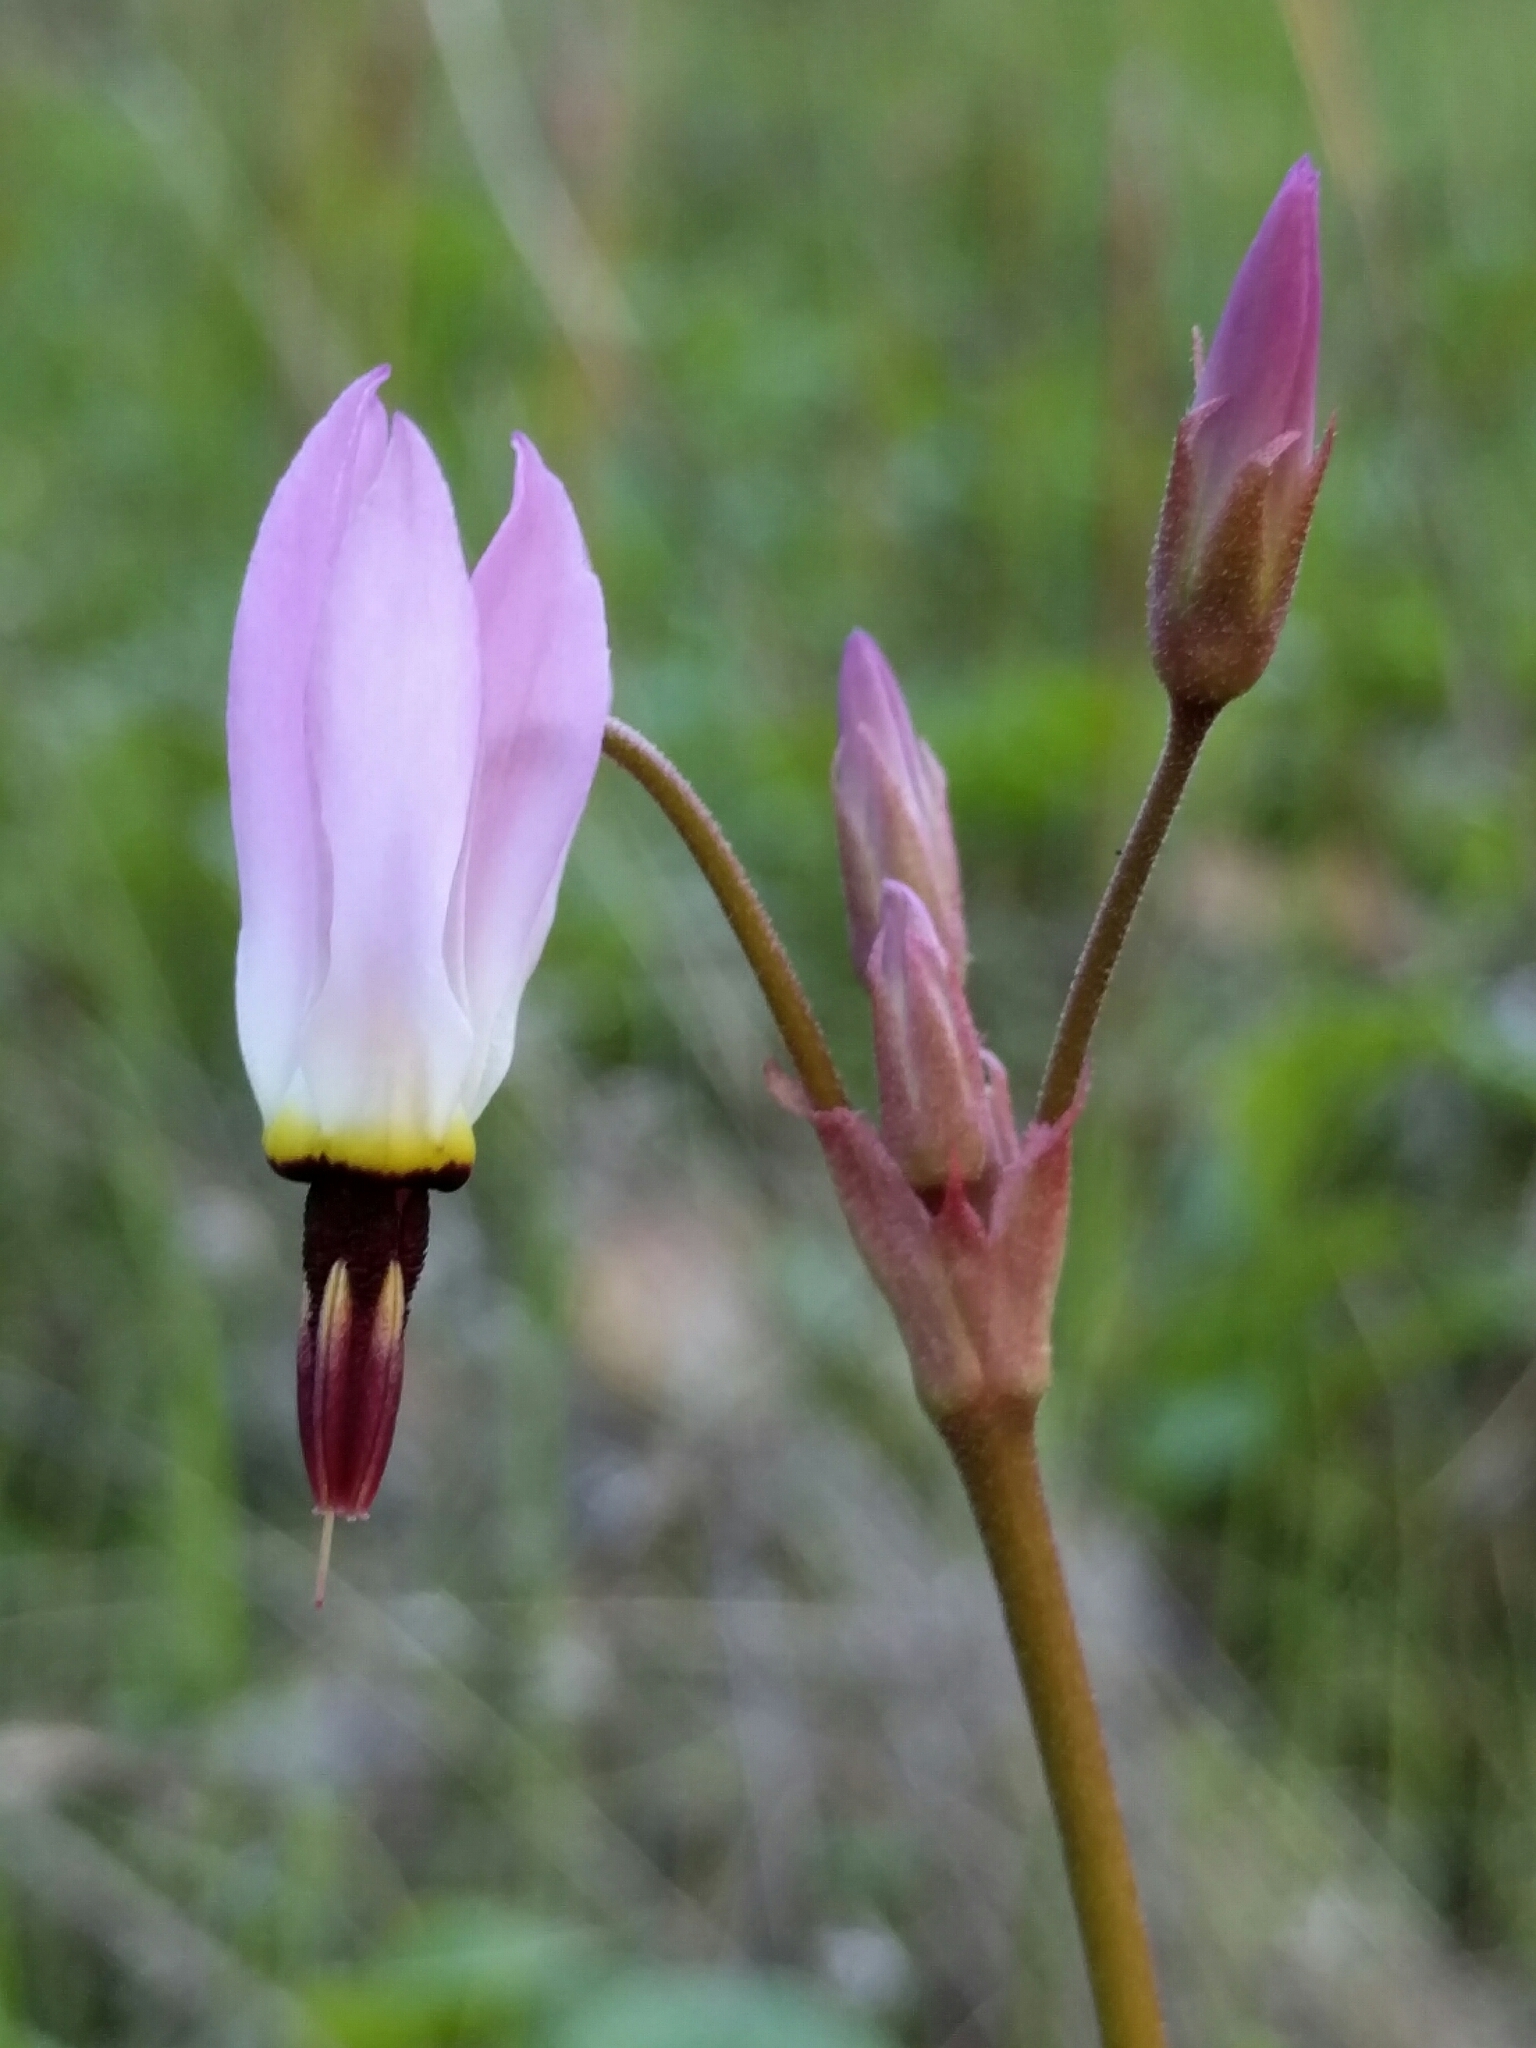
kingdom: Plantae
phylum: Tracheophyta
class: Magnoliopsida
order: Ericales
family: Primulaceae
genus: Dodecatheon
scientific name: Dodecatheon hendersonii
